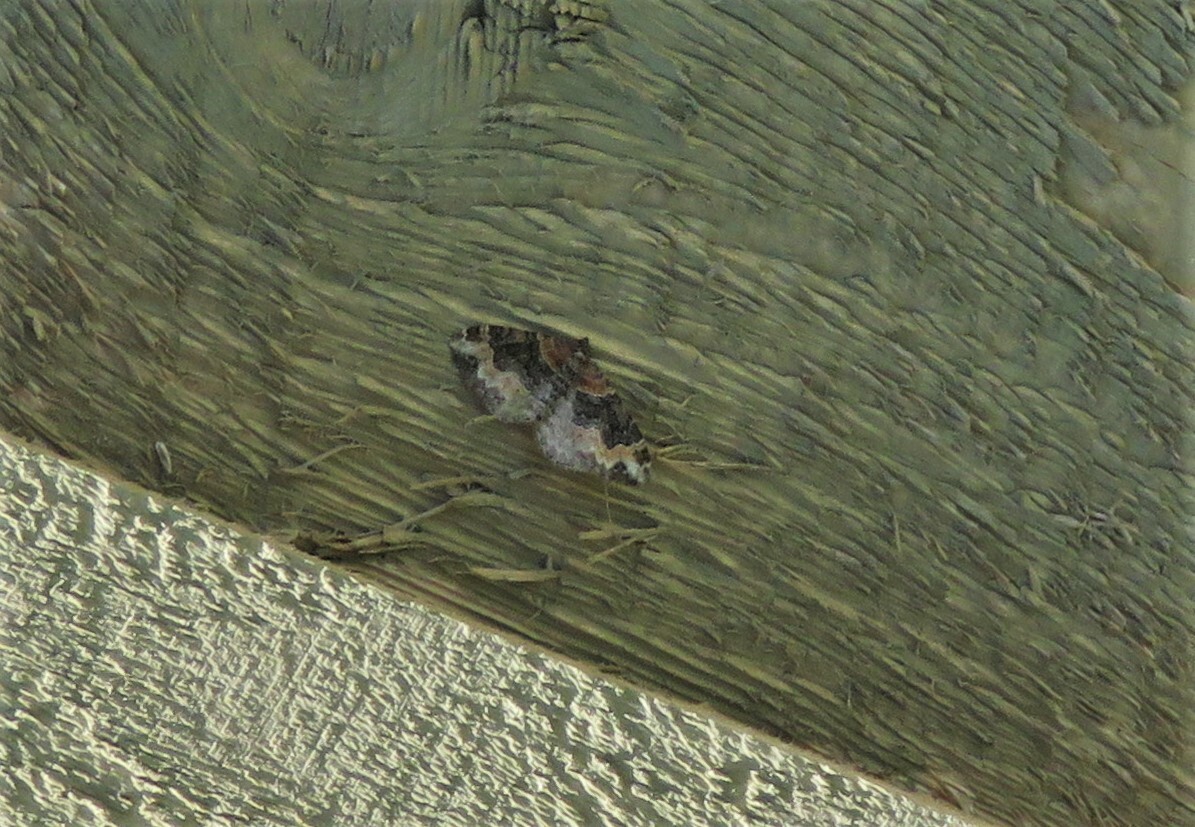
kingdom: Animalia
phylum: Arthropoda
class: Insecta
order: Lepidoptera
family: Geometridae
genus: Xanthorhoe
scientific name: Xanthorhoe ferrugata
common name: Dark-barred twin-spot carpet
